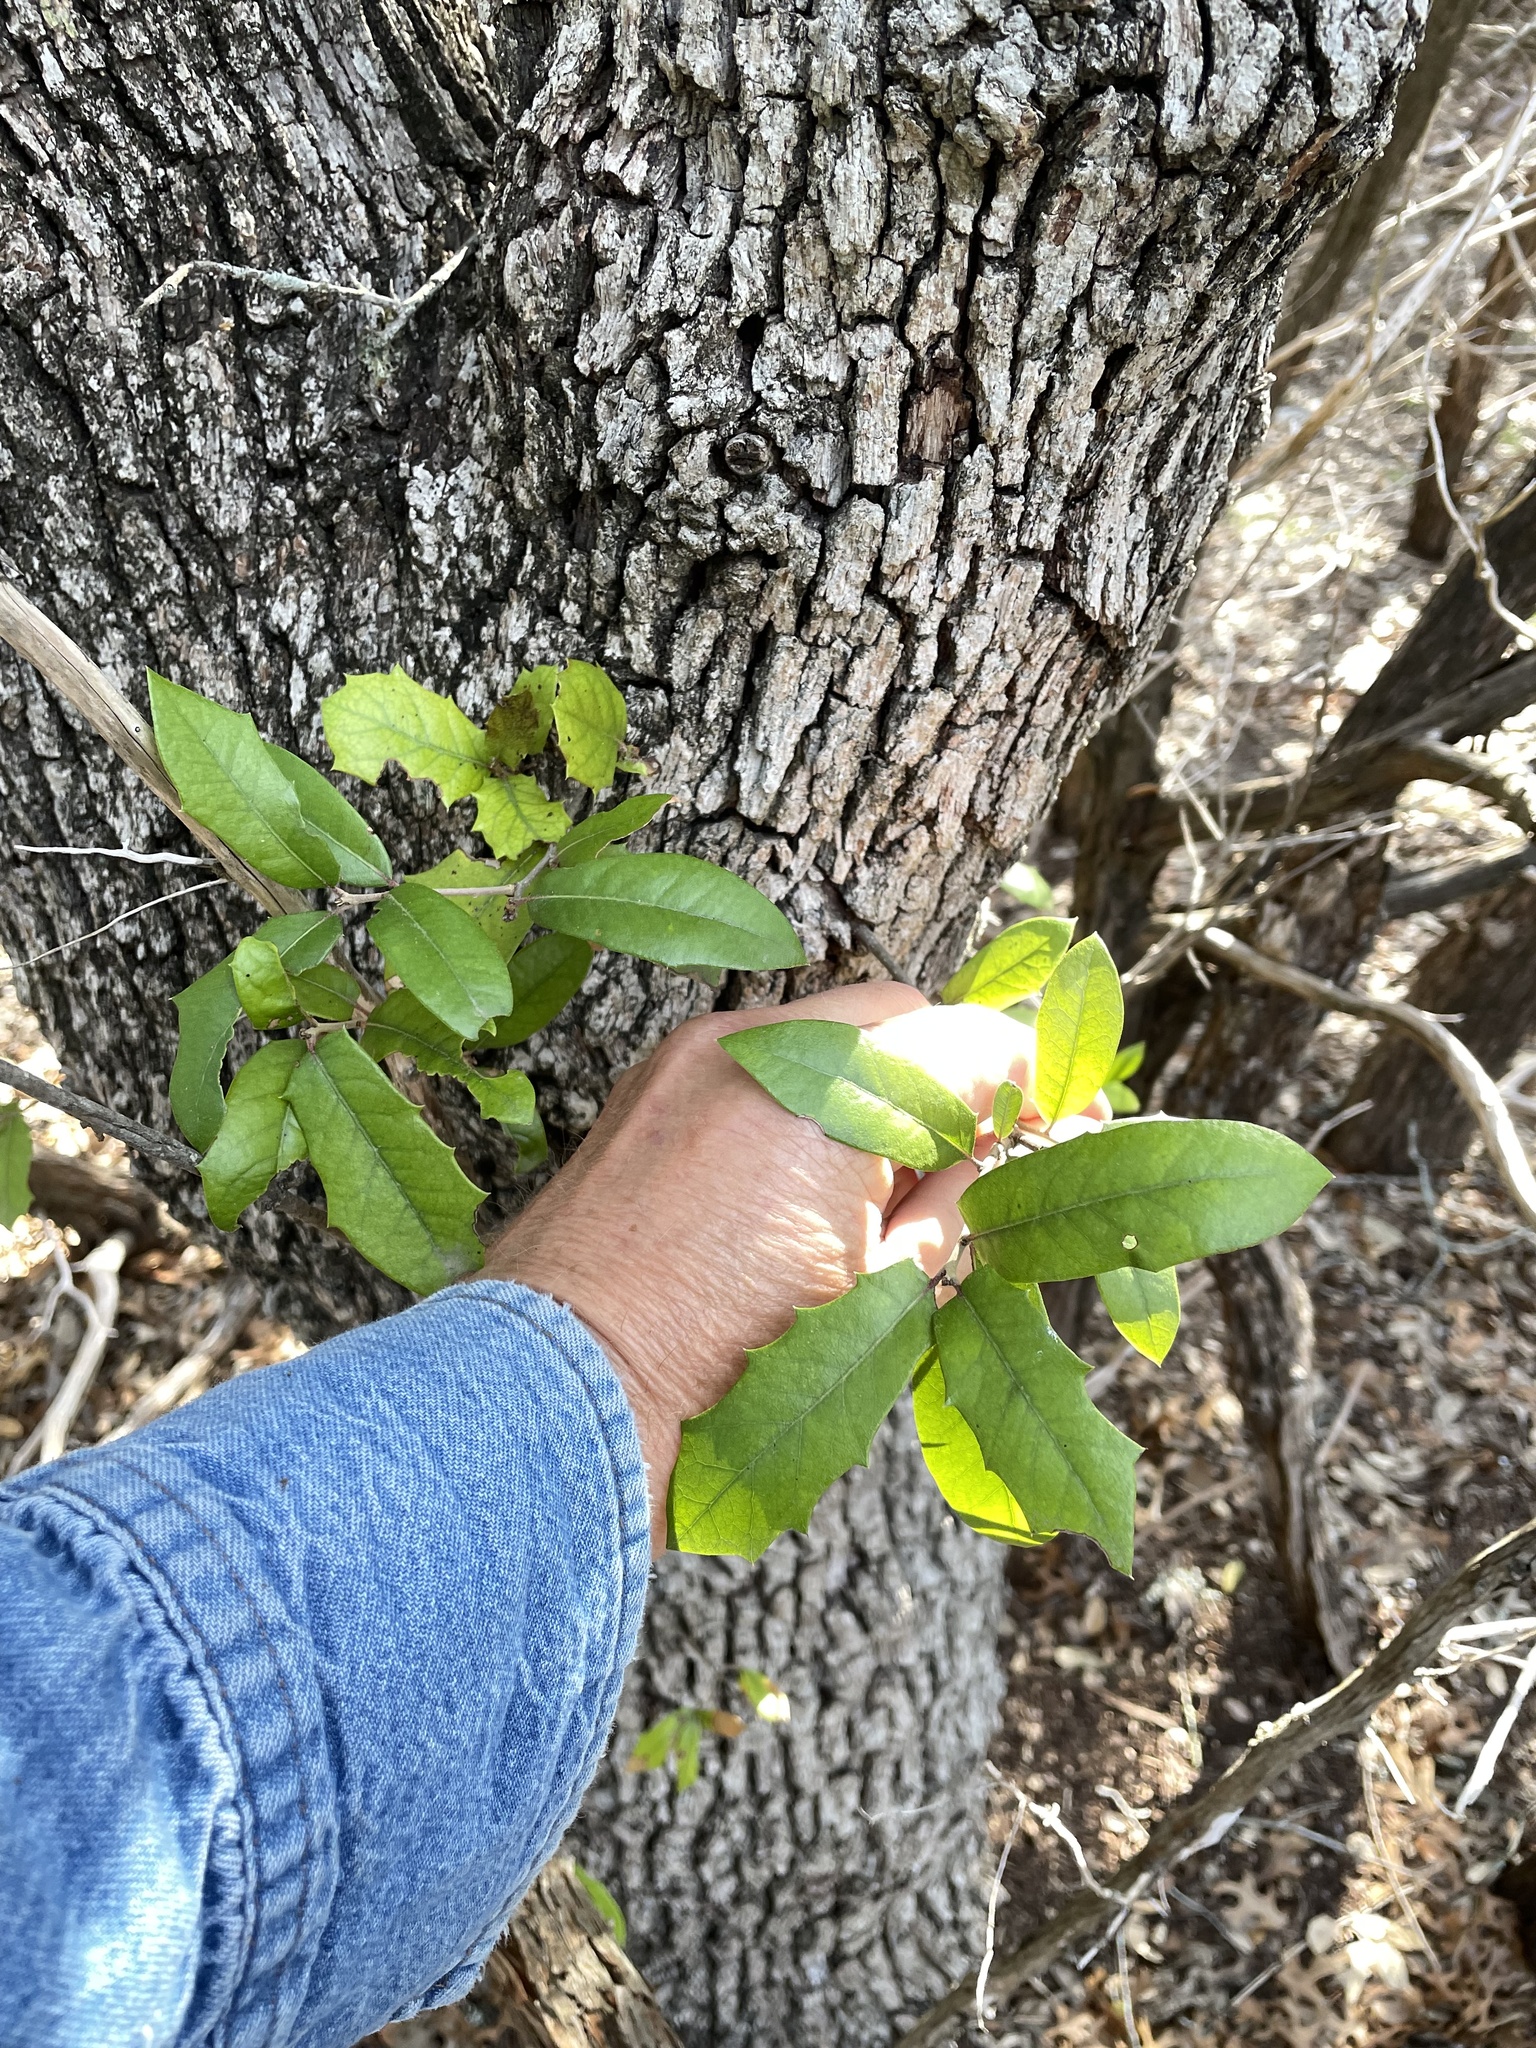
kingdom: Plantae
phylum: Tracheophyta
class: Magnoliopsida
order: Fagales
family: Fagaceae
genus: Quercus
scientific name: Quercus fusiformis
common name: Texas live oak
